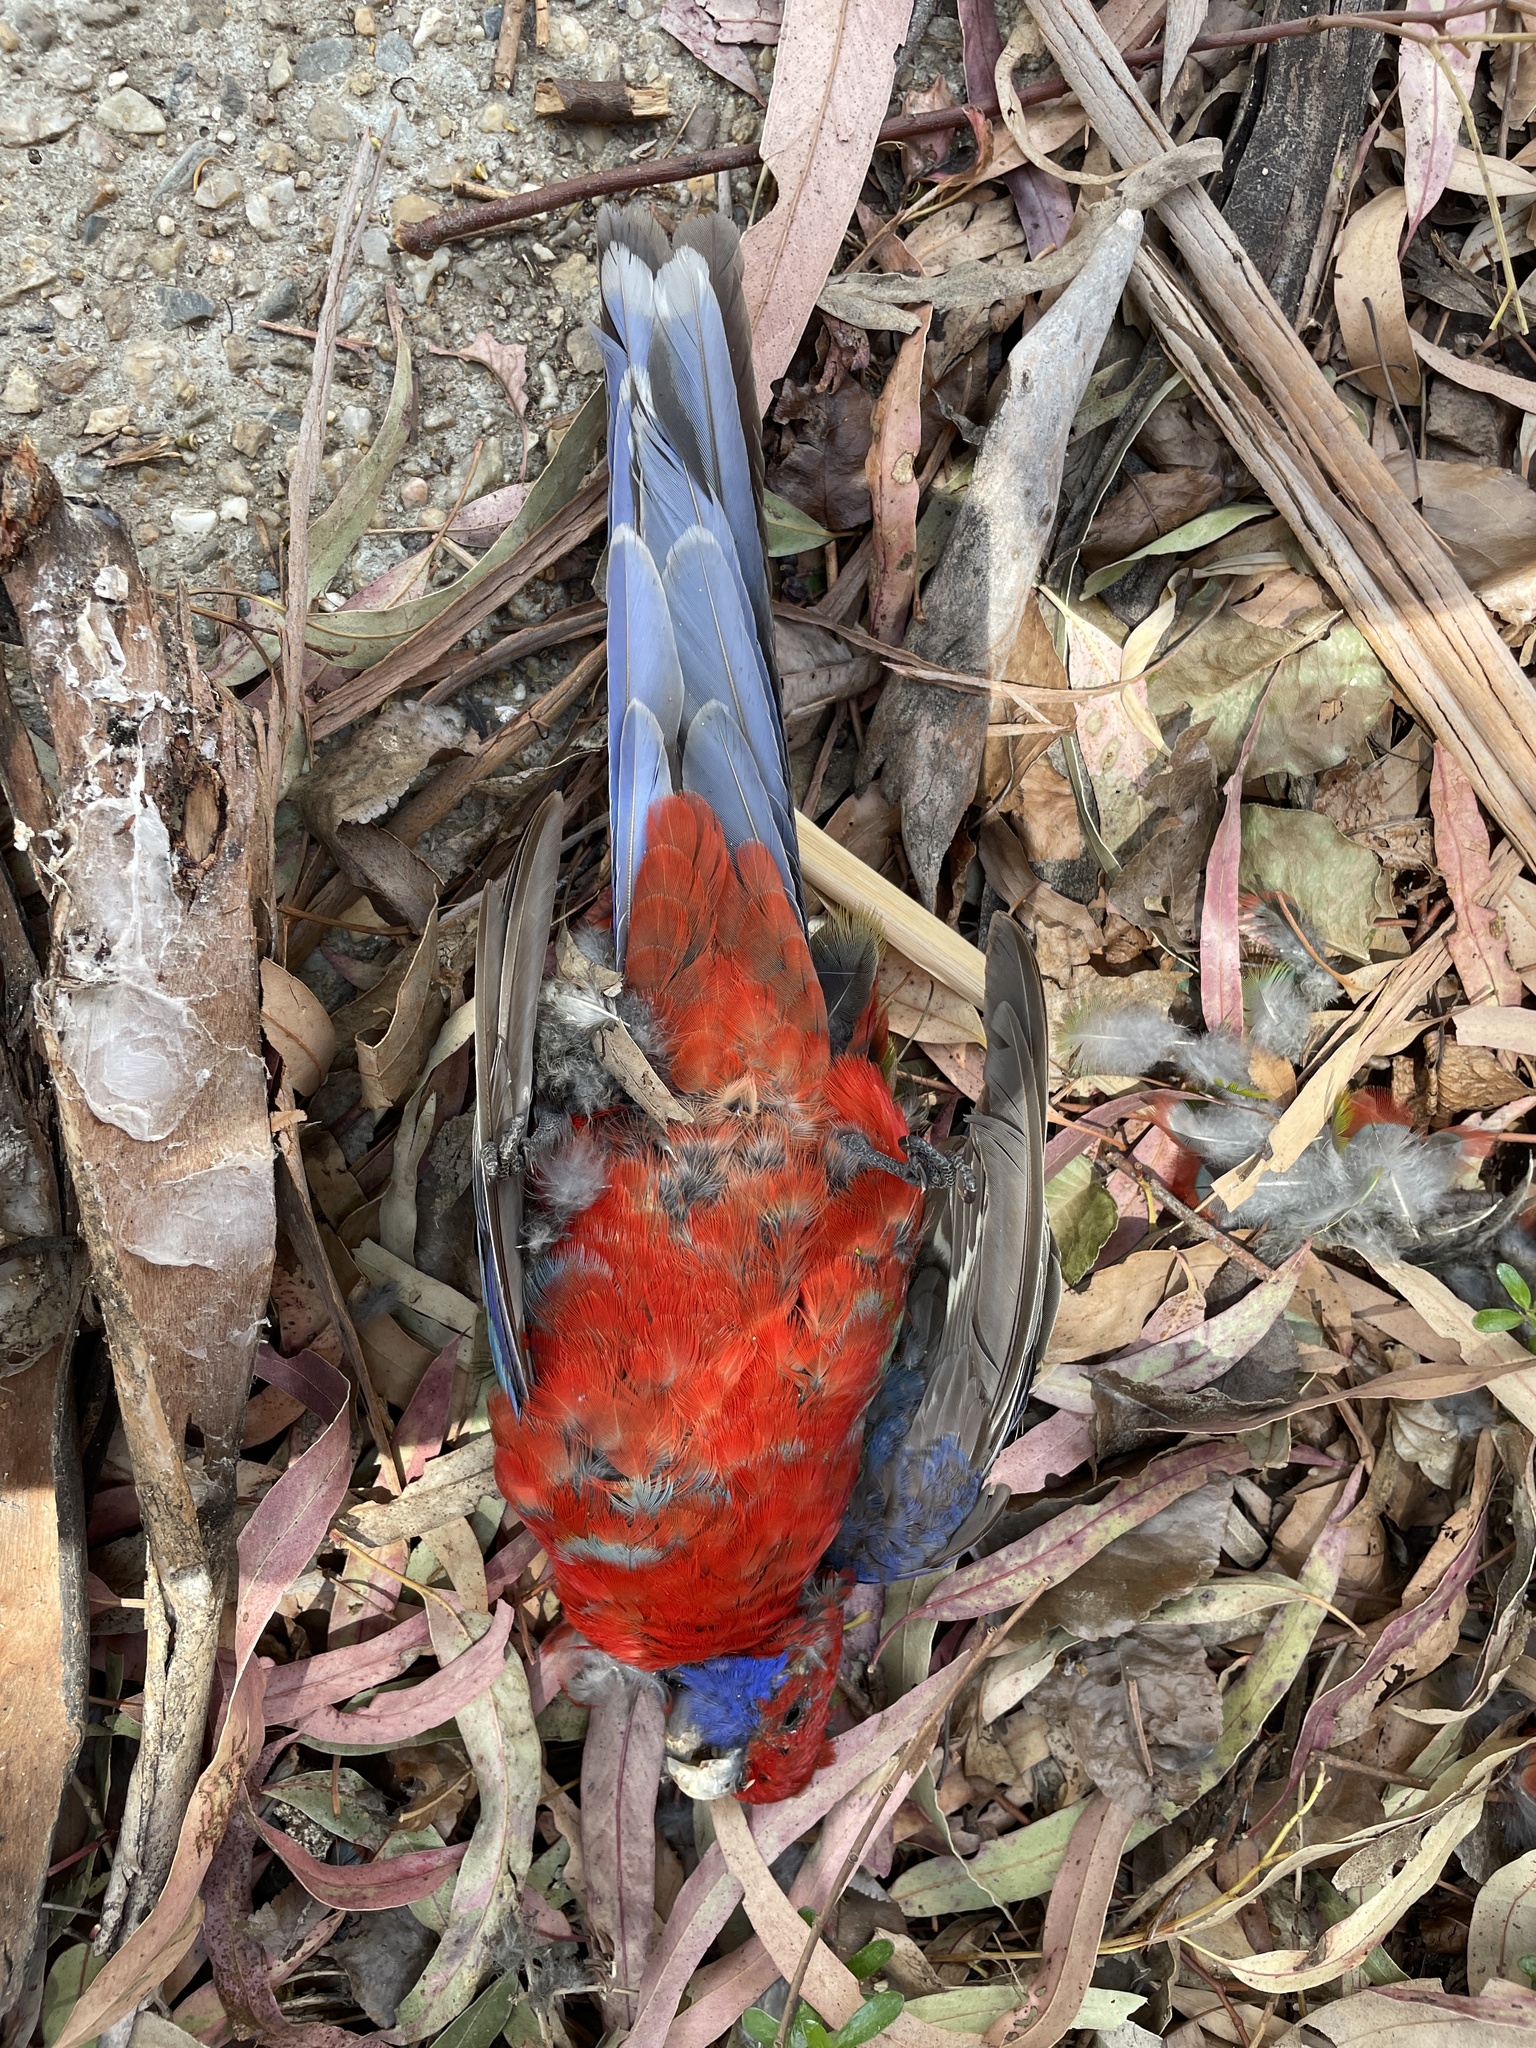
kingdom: Animalia
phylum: Chordata
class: Aves
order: Psittaciformes
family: Psittacidae
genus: Platycercus
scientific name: Platycercus elegans
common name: Crimson rosella
